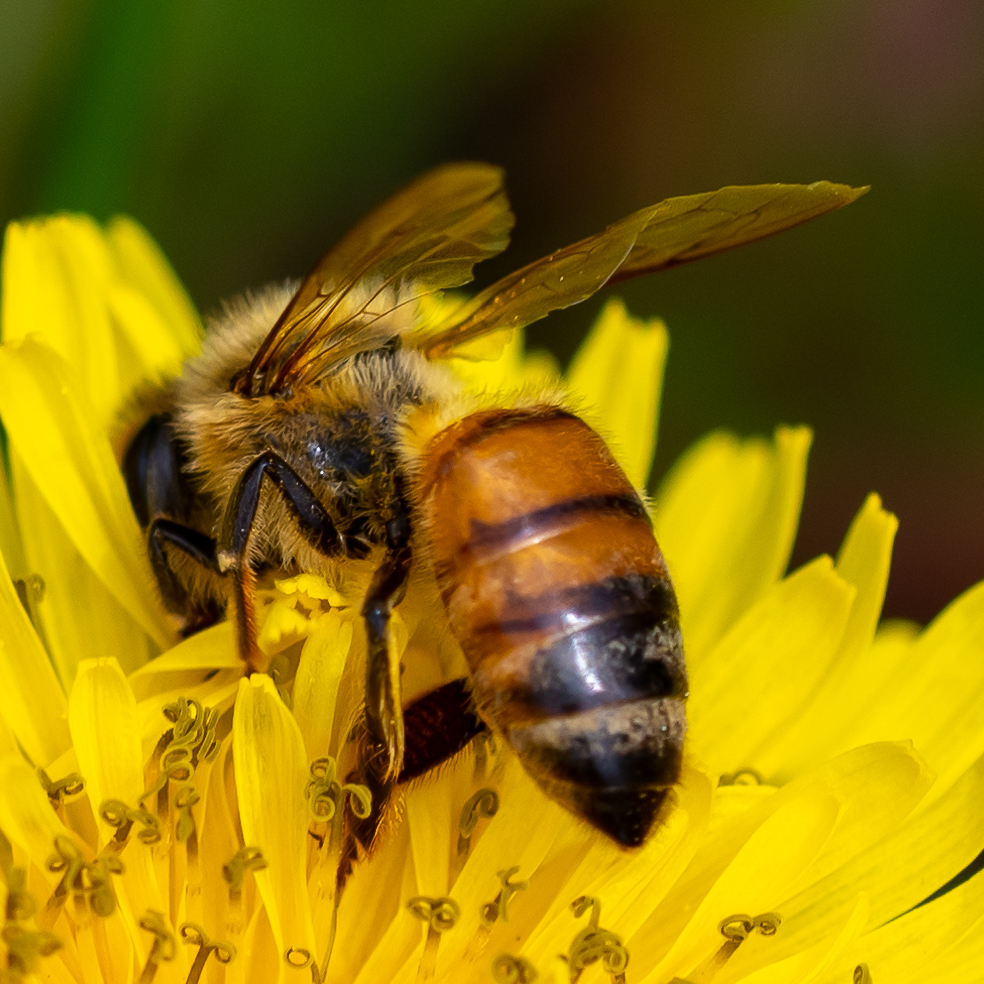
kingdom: Animalia
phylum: Arthropoda
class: Insecta
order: Hymenoptera
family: Apidae
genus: Apis
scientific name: Apis mellifera
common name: Honey bee
